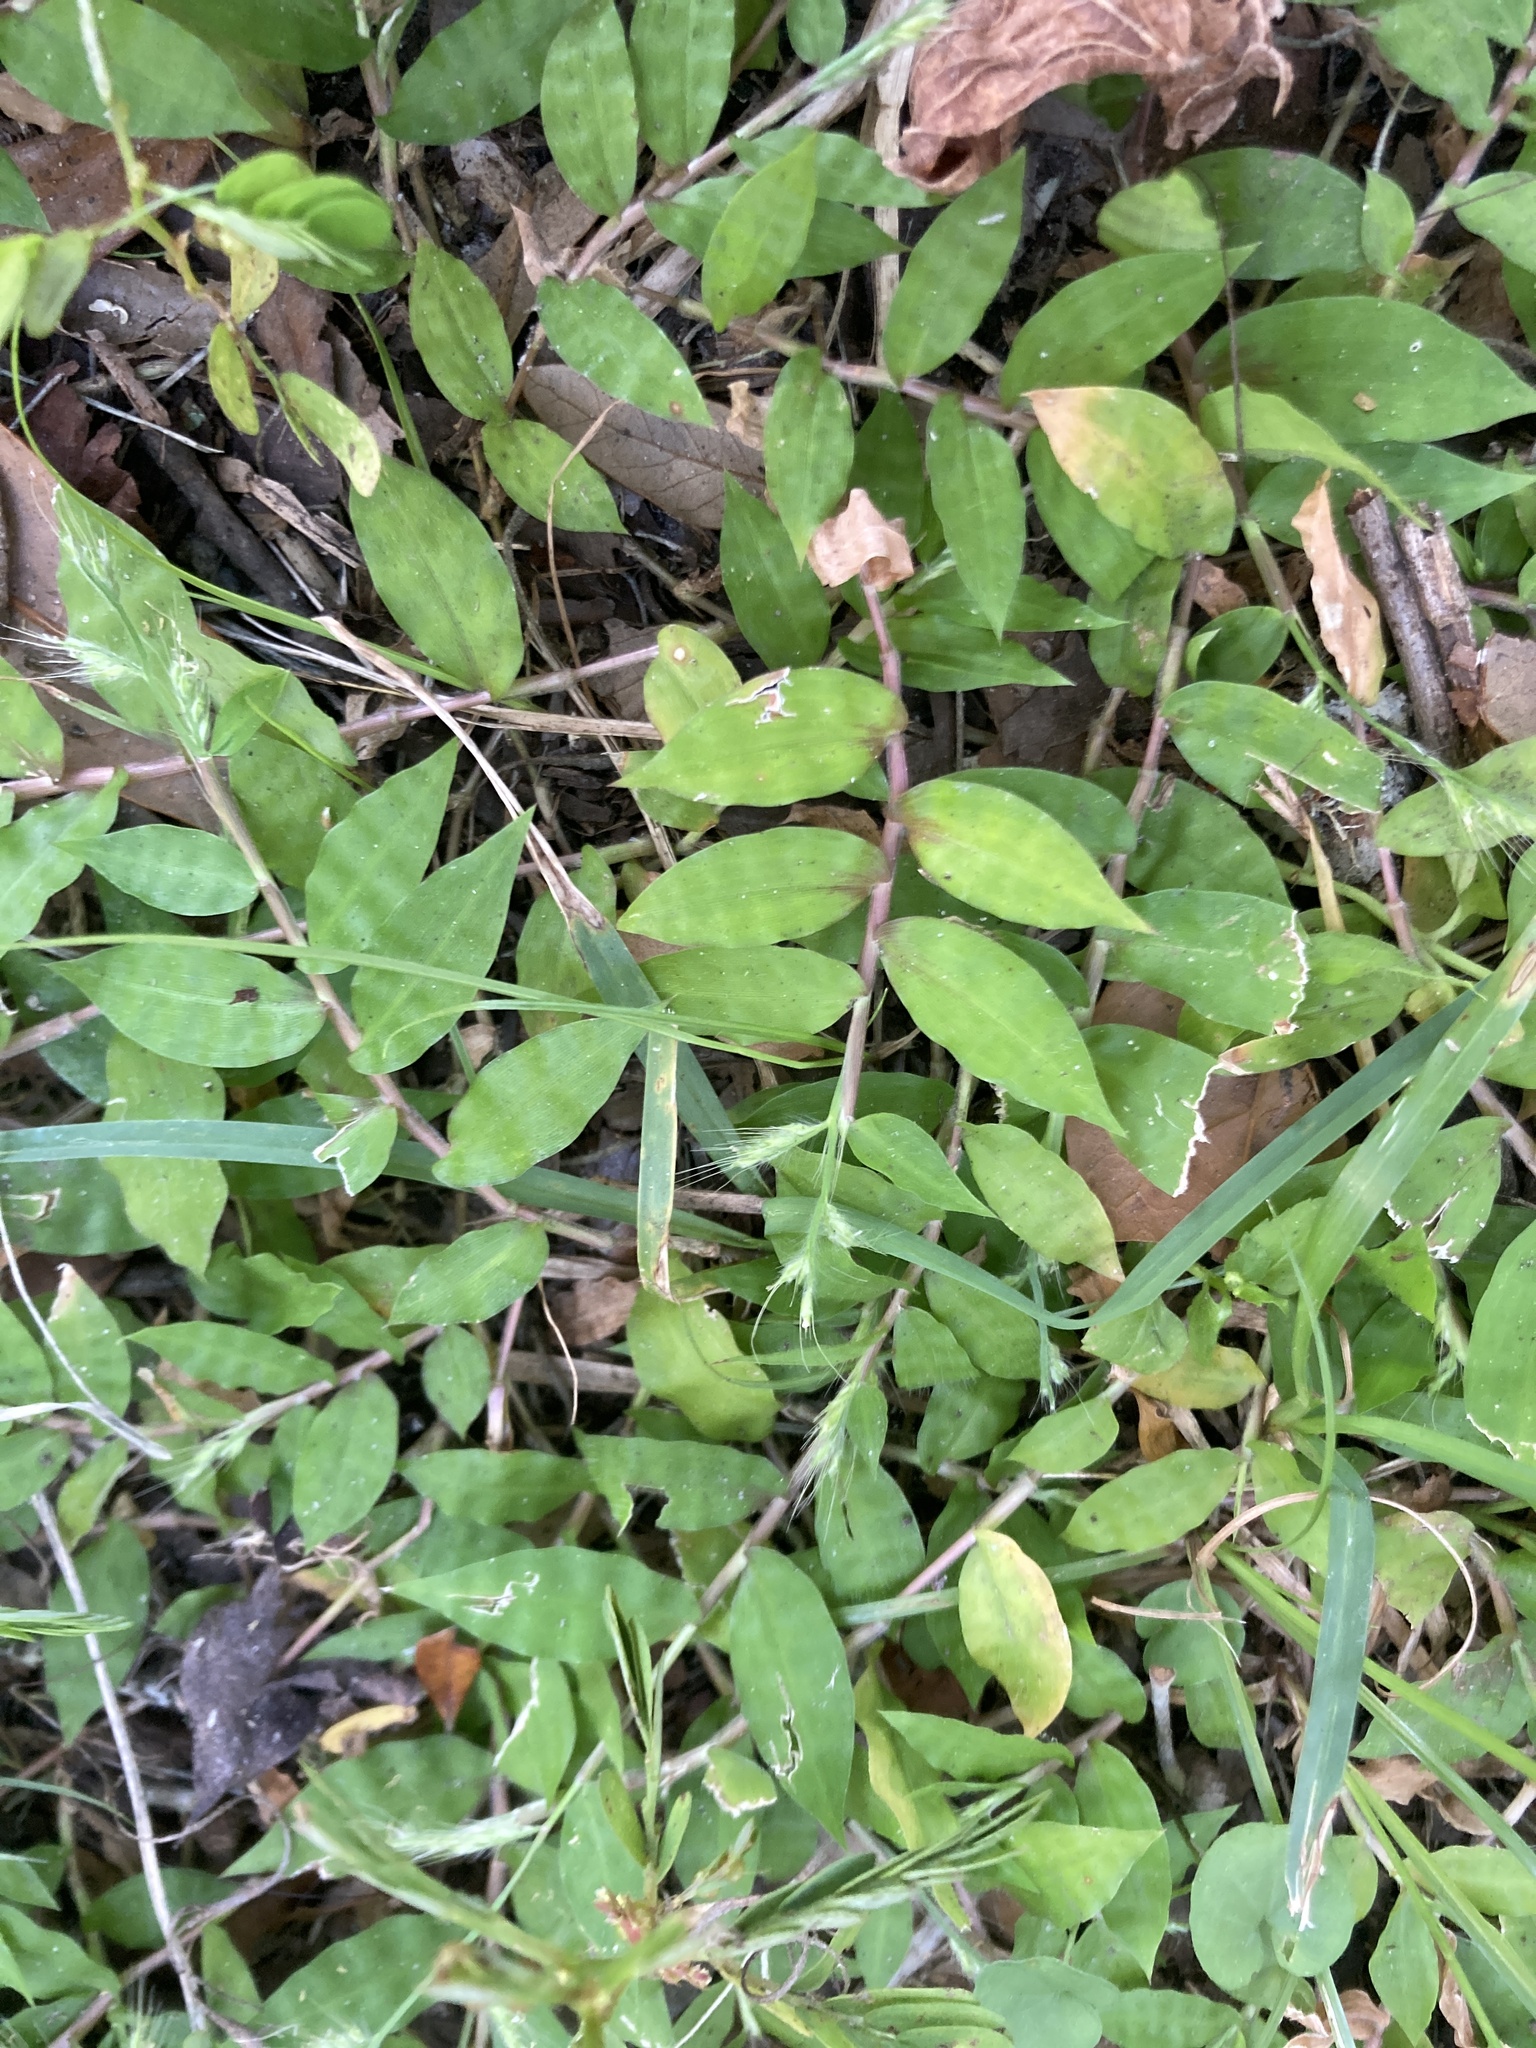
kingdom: Plantae
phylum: Tracheophyta
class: Liliopsida
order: Poales
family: Poaceae
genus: Oplismenus
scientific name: Oplismenus burmanni
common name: Burmann's basketgrass
